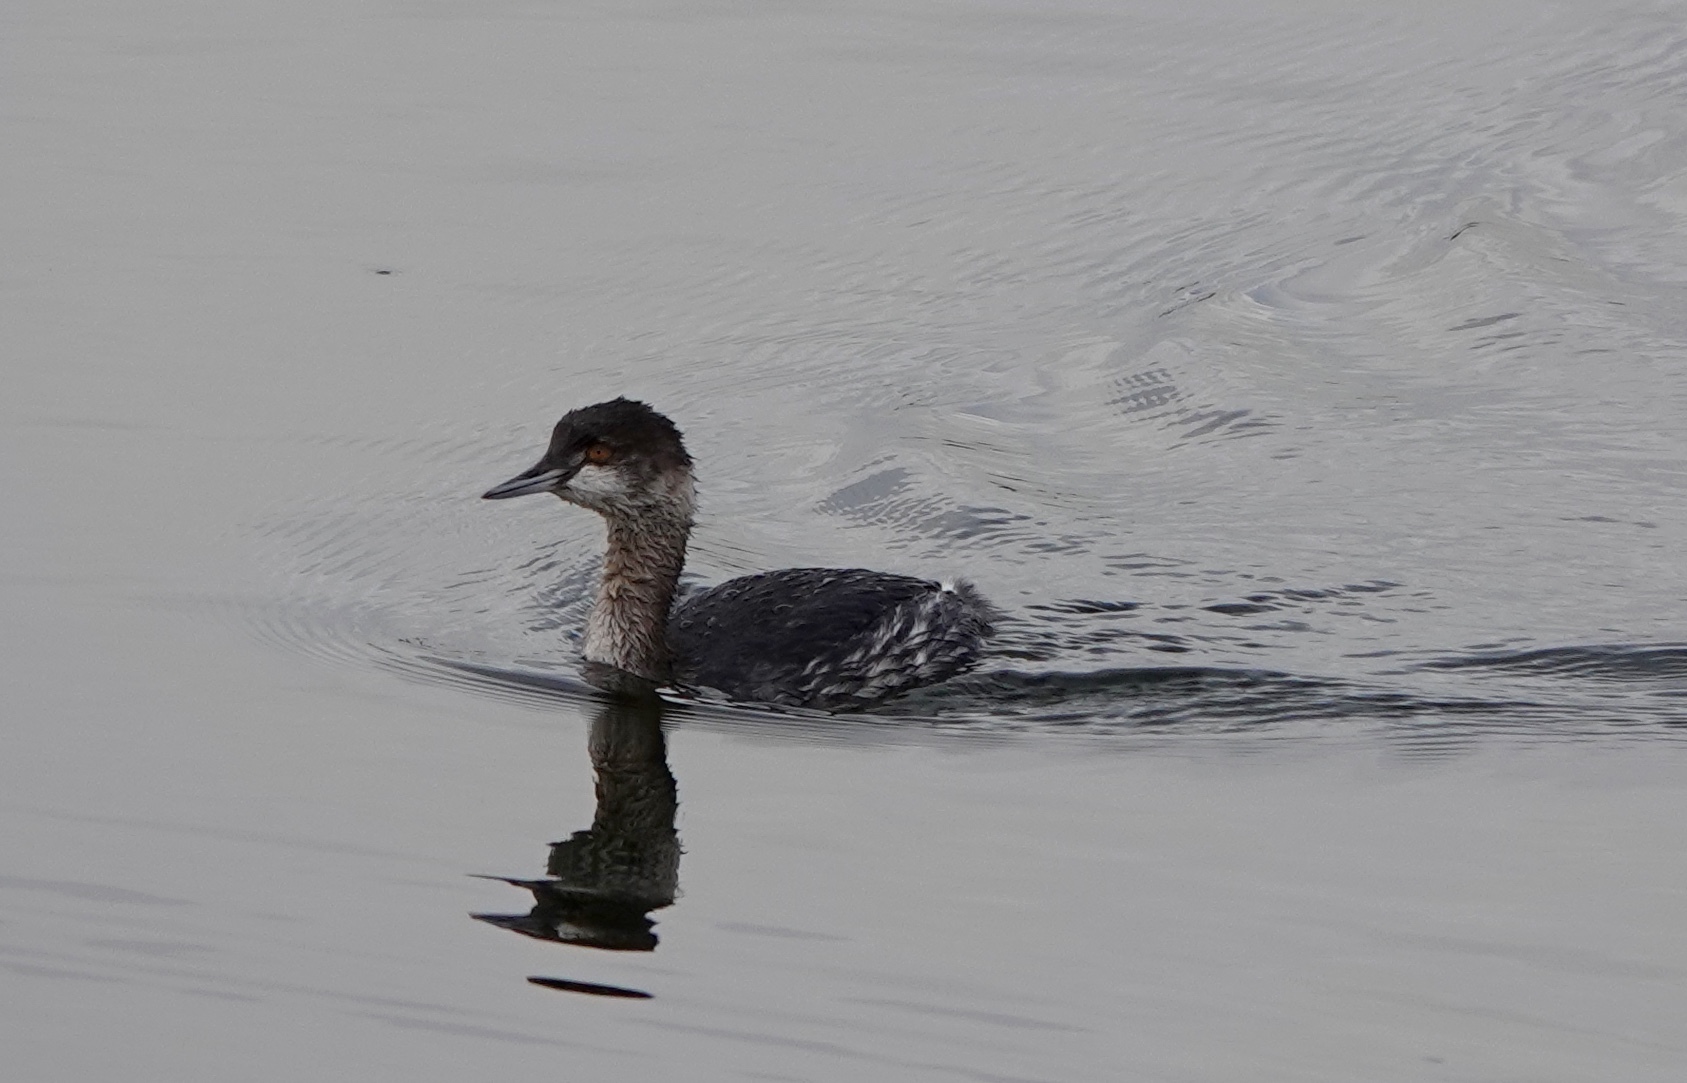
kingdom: Animalia
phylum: Chordata
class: Aves
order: Podicipediformes
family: Podicipedidae
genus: Podiceps
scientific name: Podiceps nigricollis
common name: Black-necked grebe
